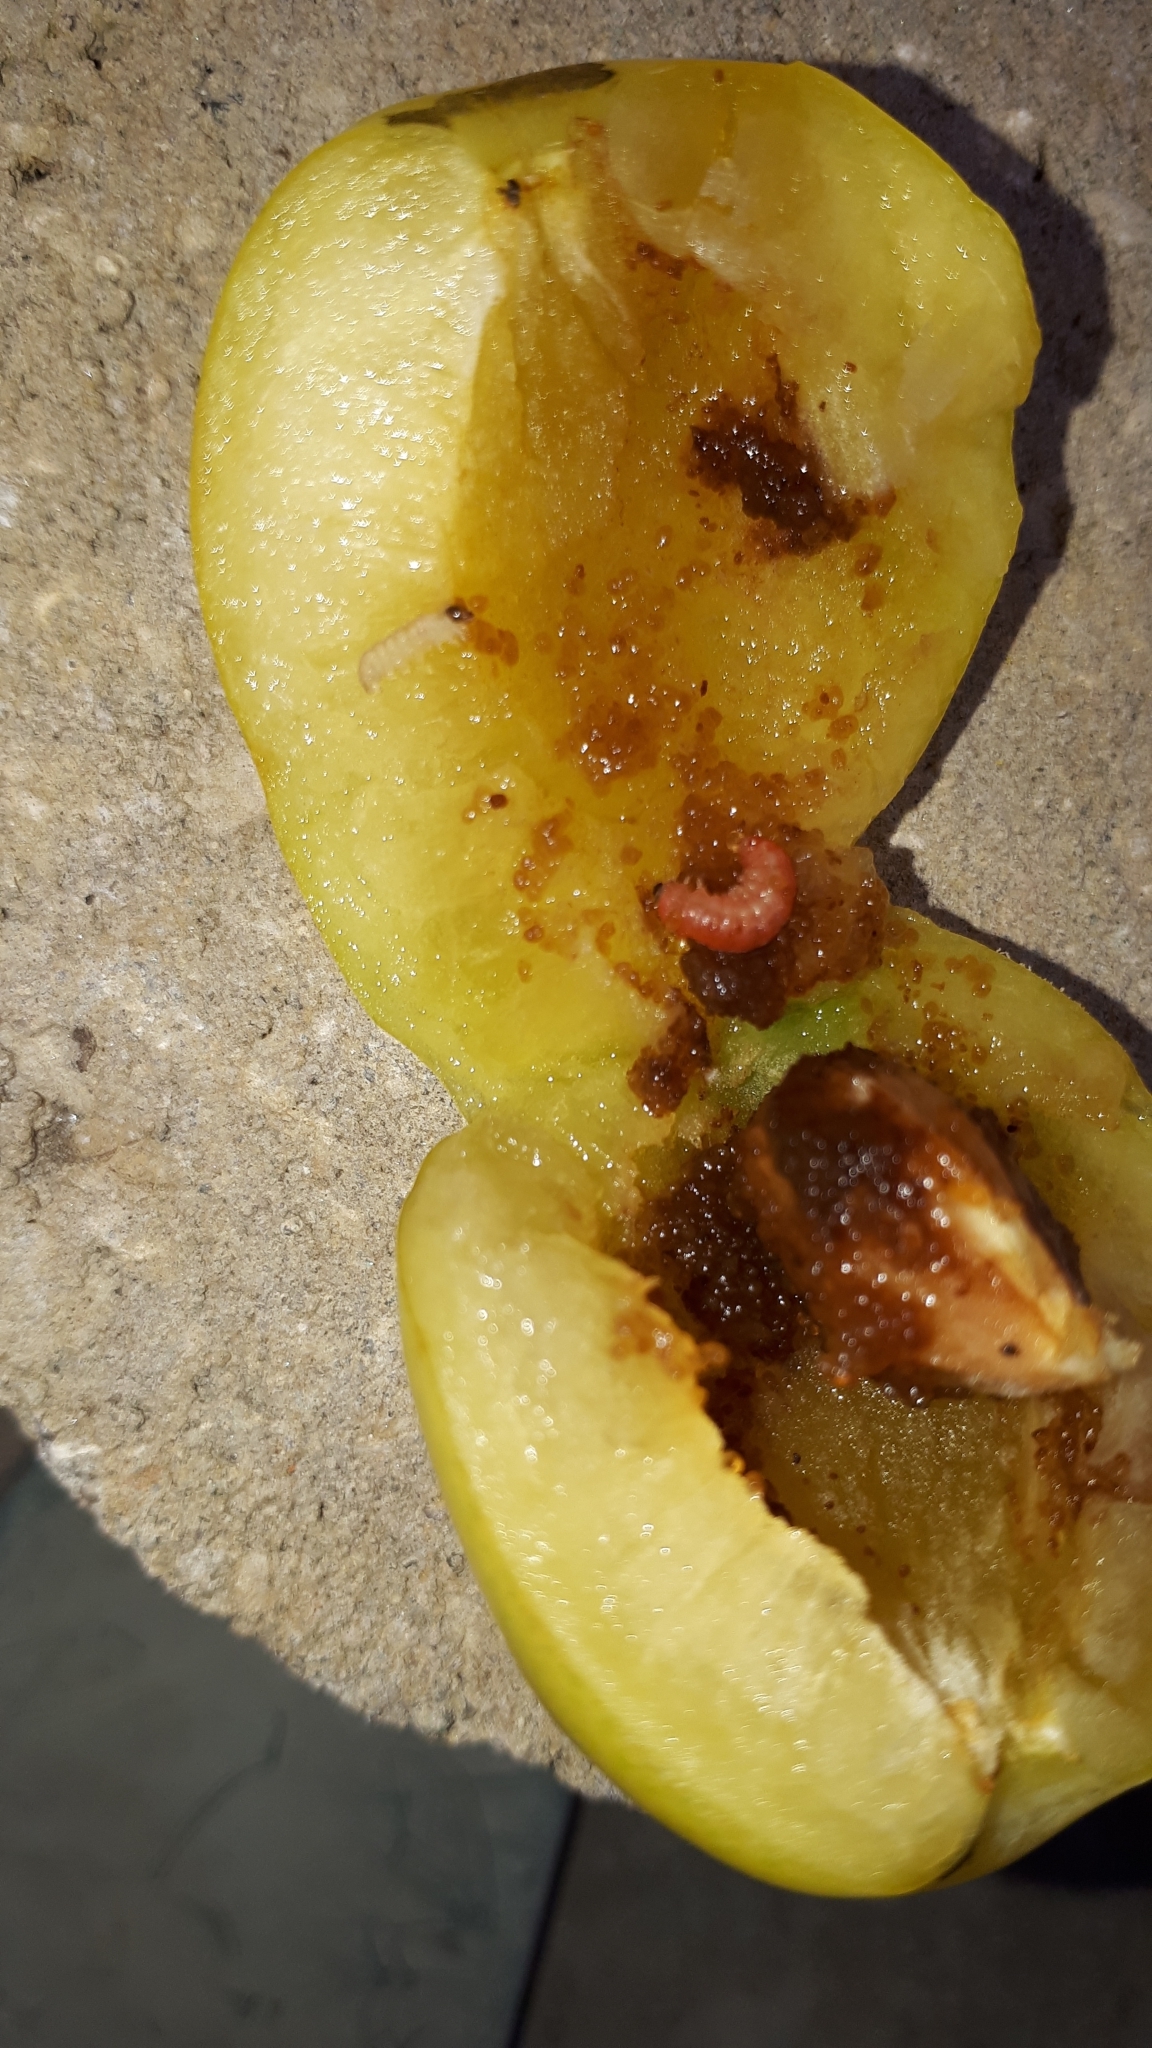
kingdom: Animalia
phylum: Arthropoda
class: Insecta
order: Lepidoptera
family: Noctuidae
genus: Aspila
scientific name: Aspila
